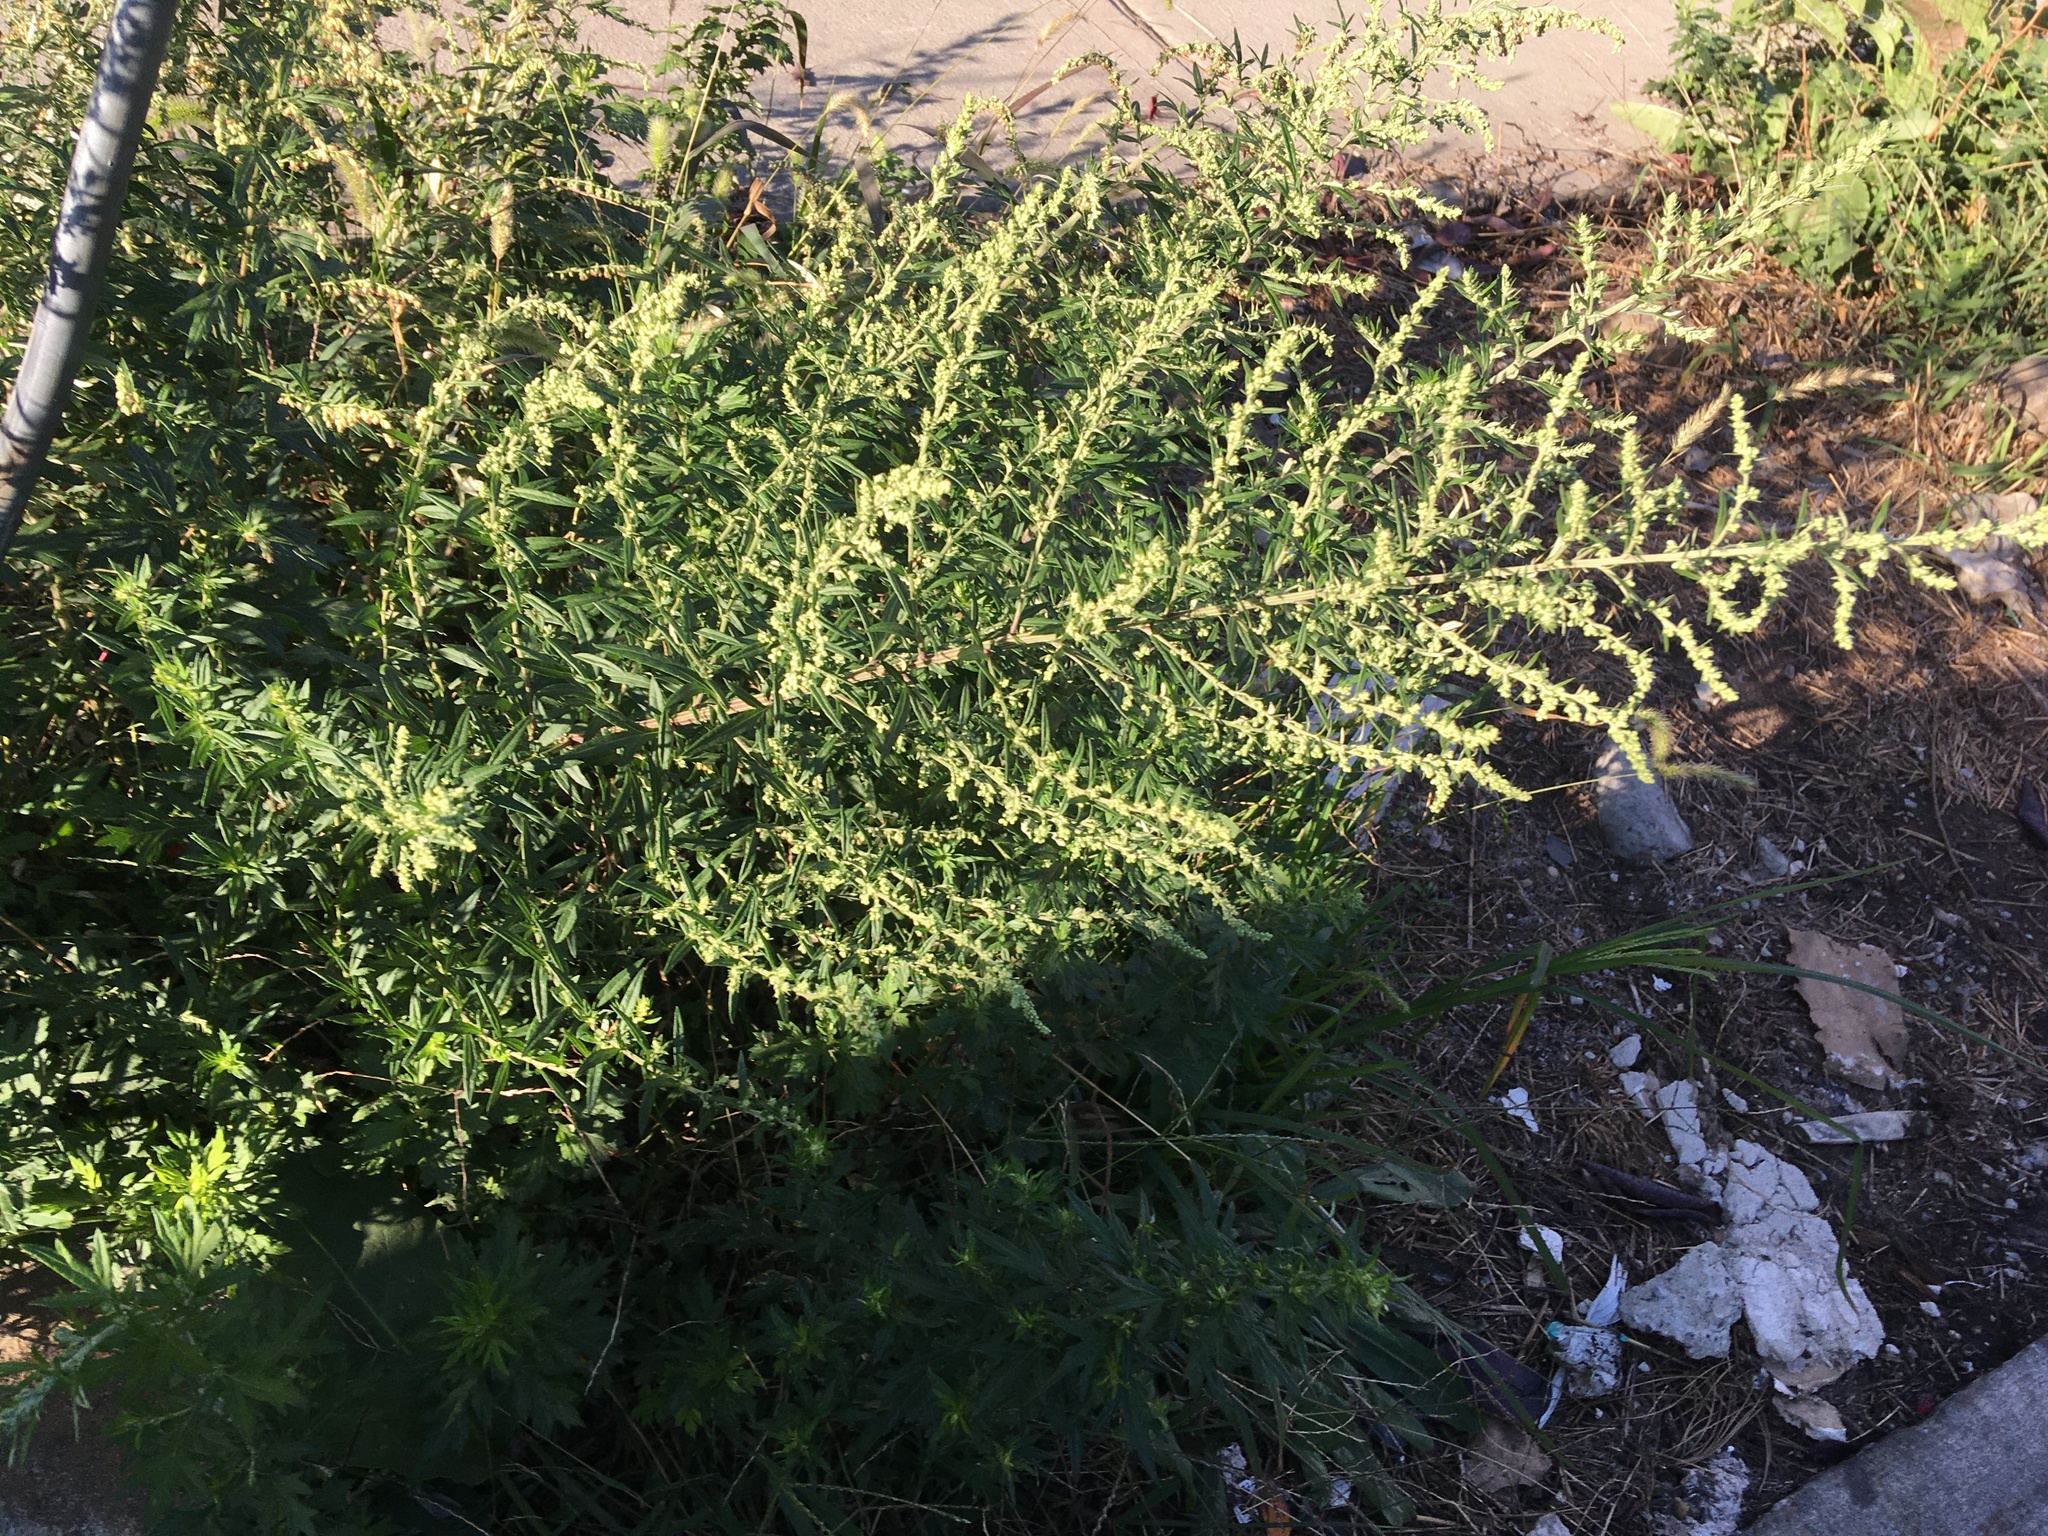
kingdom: Plantae
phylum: Tracheophyta
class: Magnoliopsida
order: Asterales
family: Asteraceae
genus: Artemisia
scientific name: Artemisia vulgaris
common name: Mugwort
